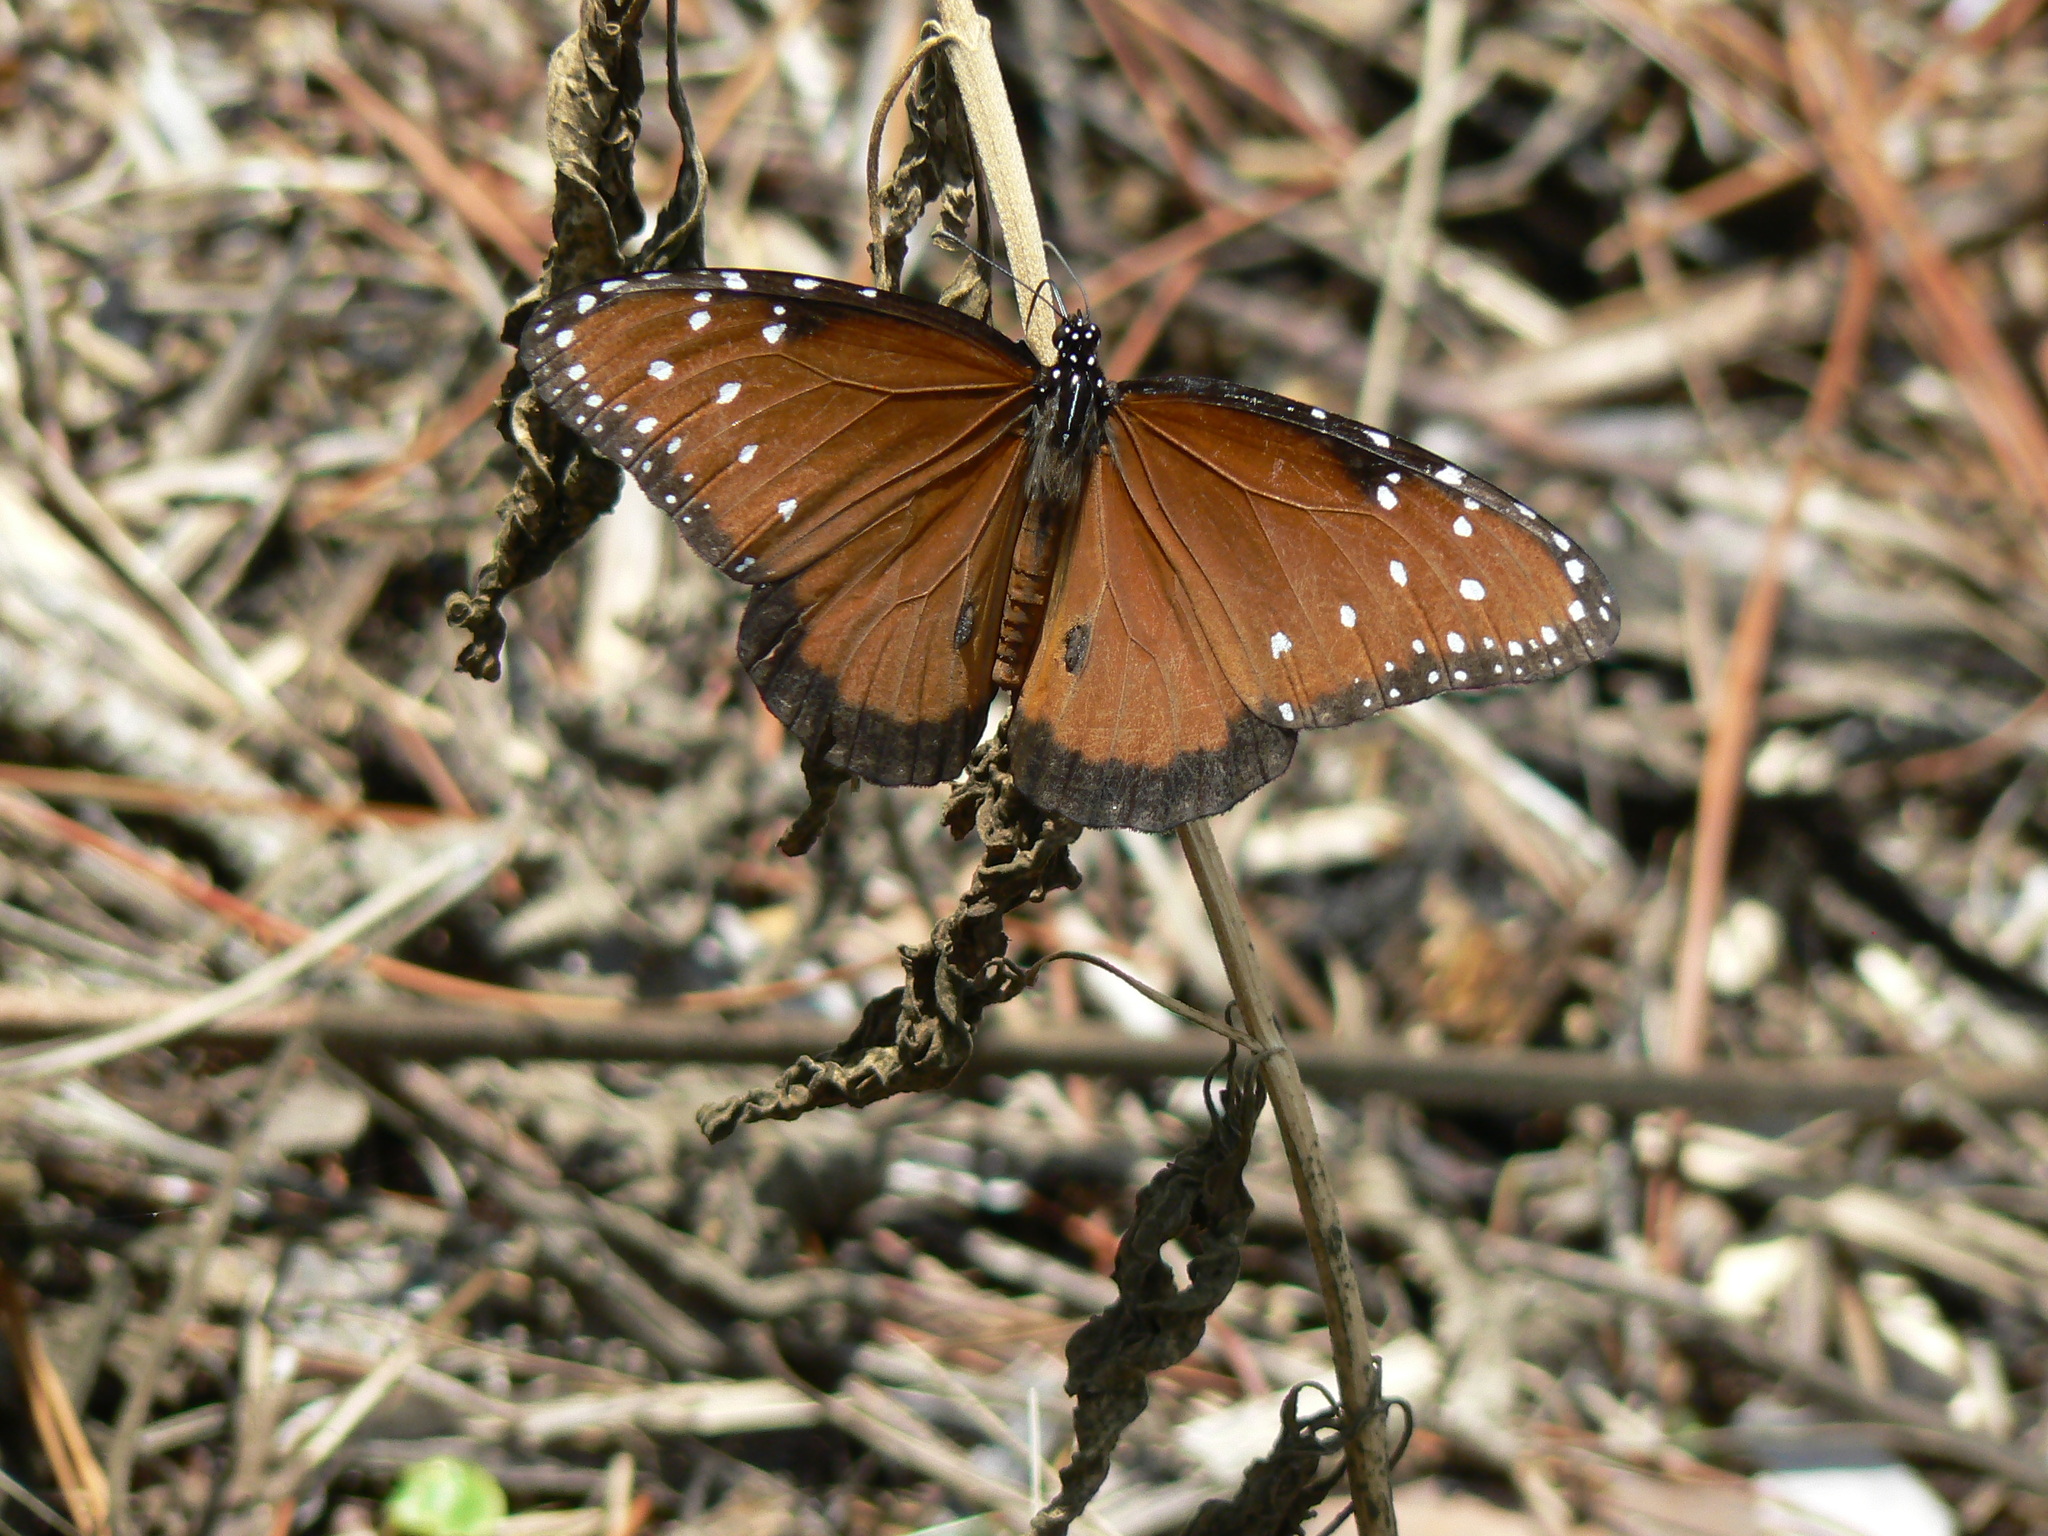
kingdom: Animalia
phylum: Arthropoda
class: Insecta
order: Lepidoptera
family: Nymphalidae
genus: Danaus
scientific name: Danaus gilippus
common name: Queen
